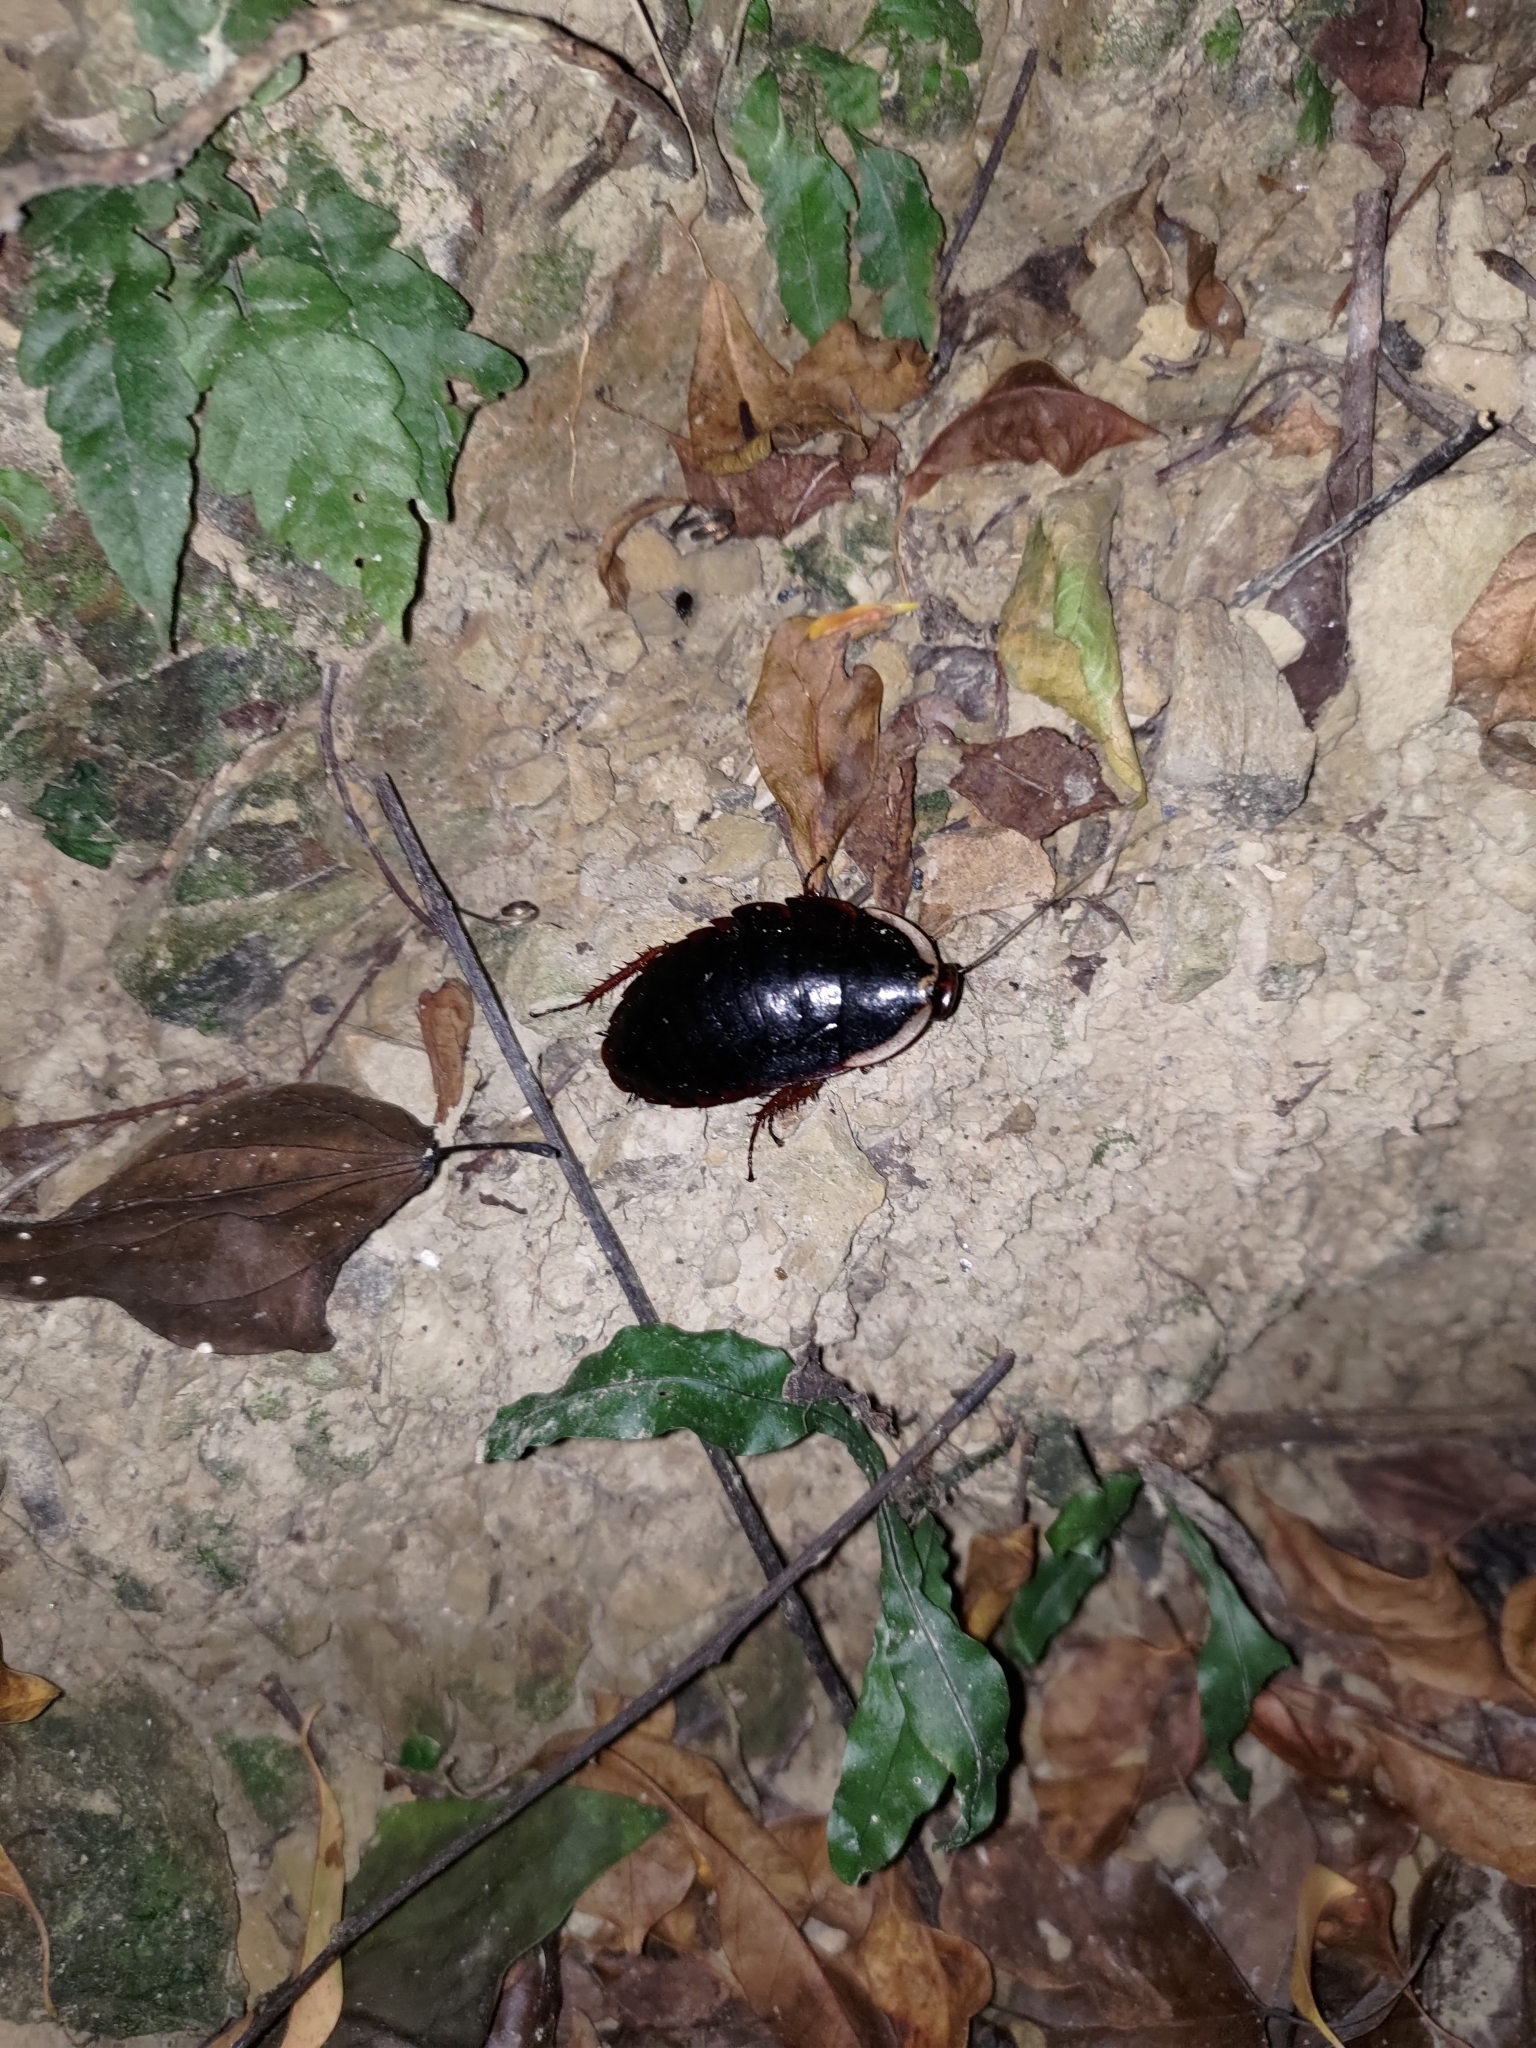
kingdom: Animalia
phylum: Arthropoda
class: Insecta
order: Blattodea
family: Blaberidae
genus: Opisthoplatia
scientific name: Opisthoplatia orientalis
